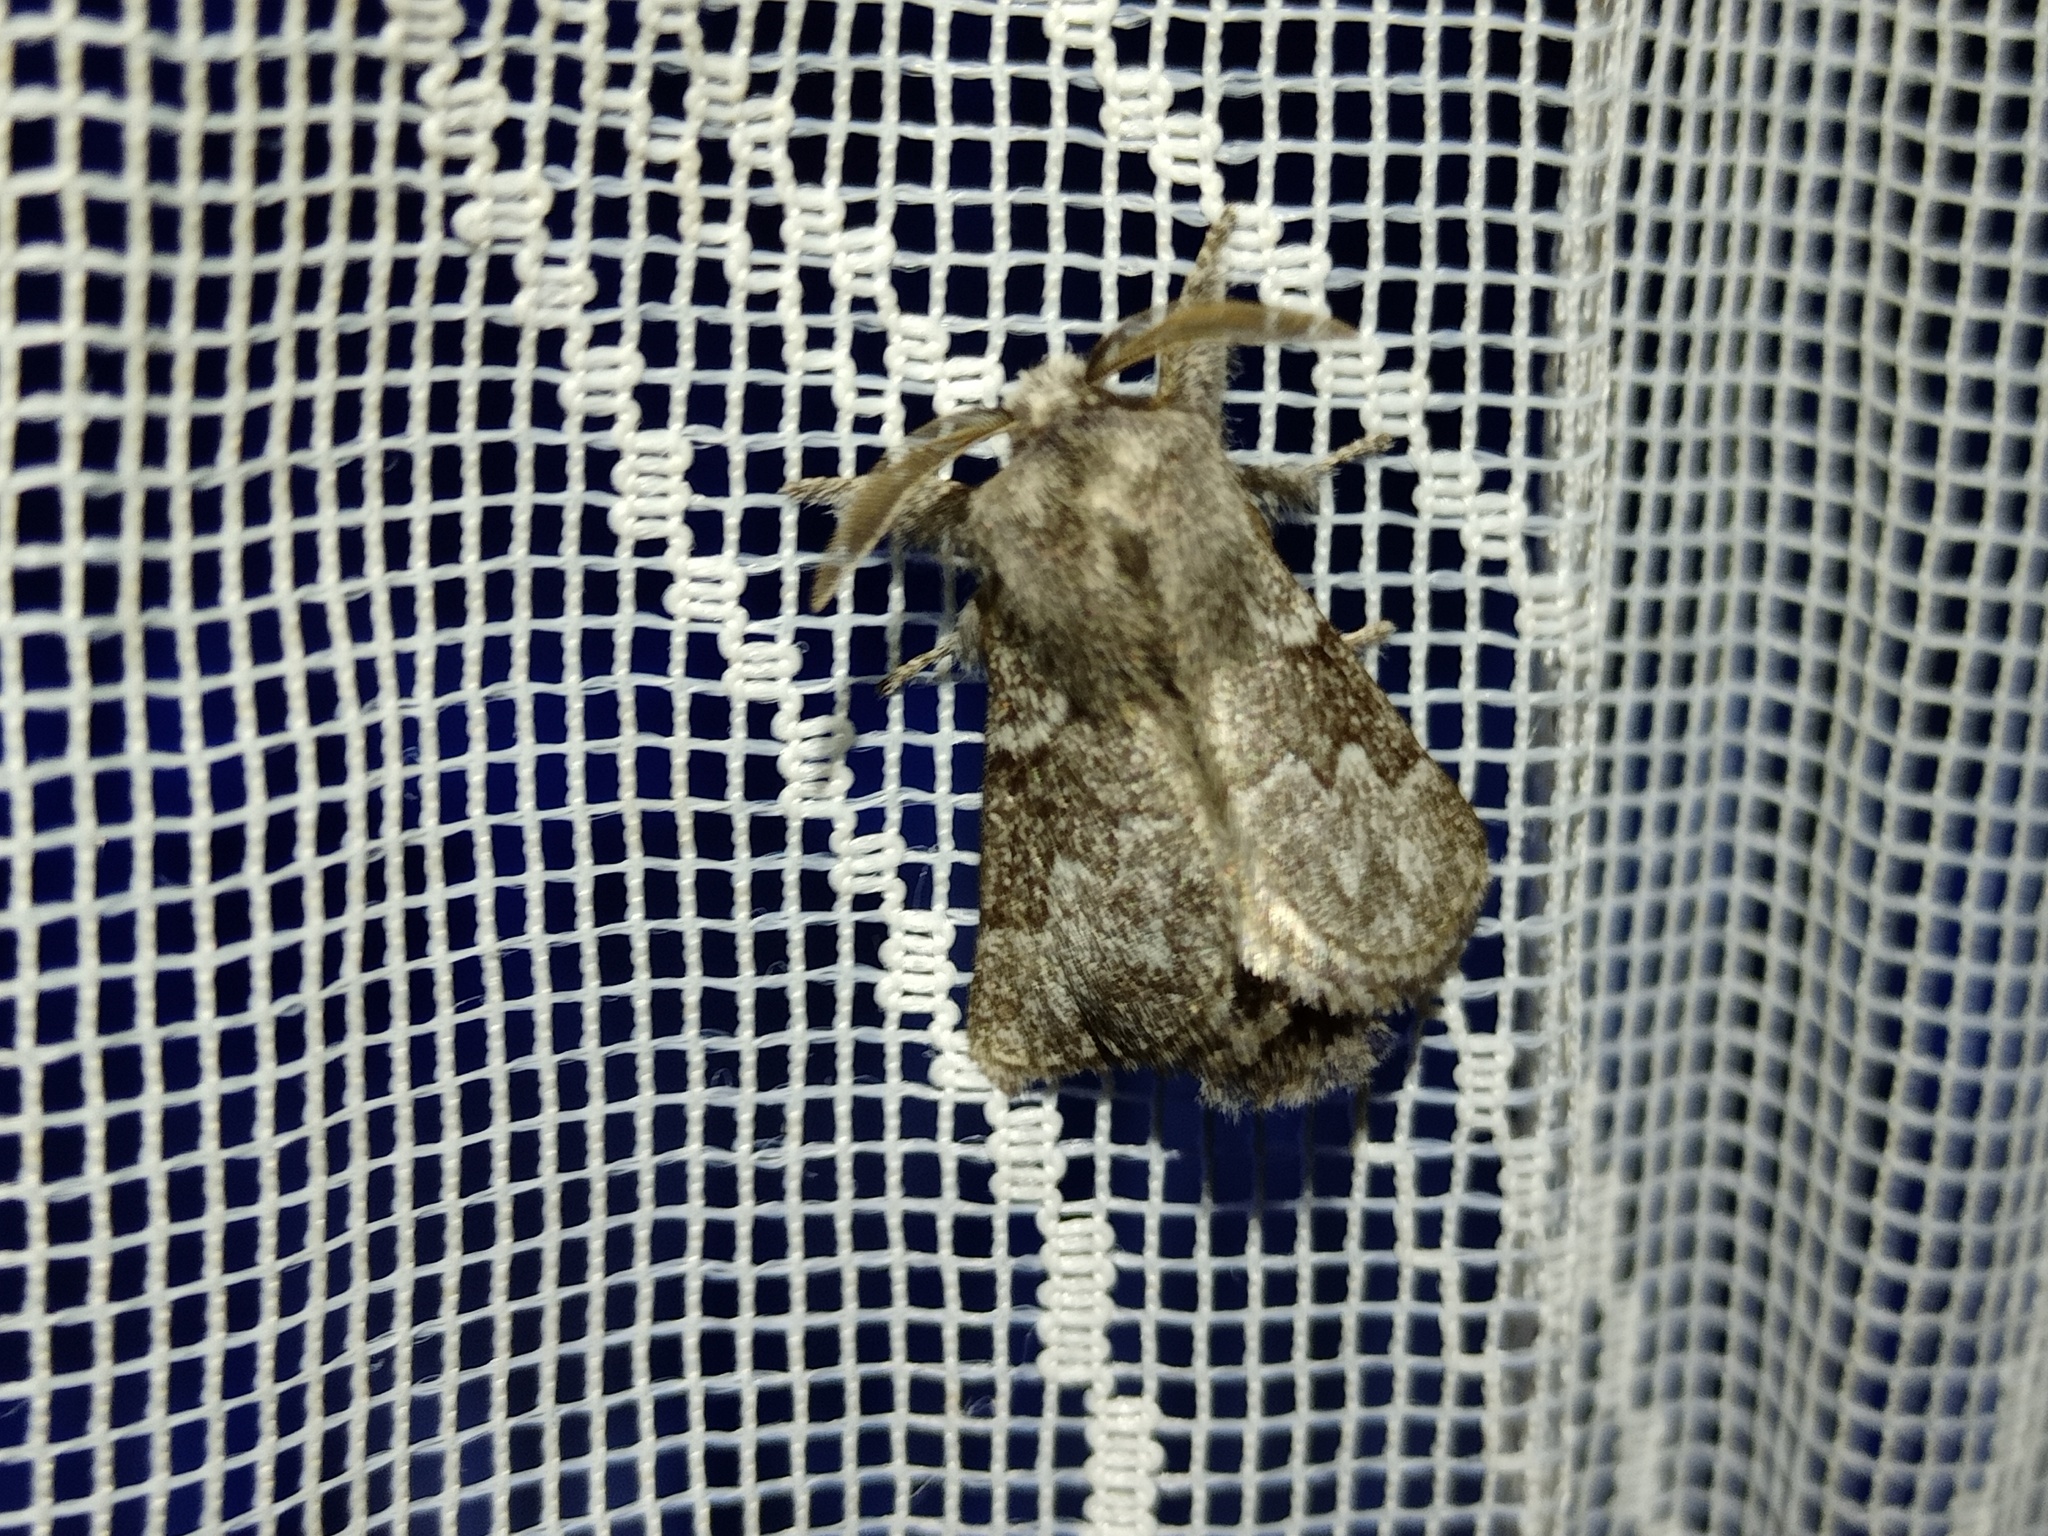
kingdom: Animalia
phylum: Arthropoda
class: Insecta
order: Lepidoptera
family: Lasiocampidae
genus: Trichiura
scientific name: Trichiura crataegi
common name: Pale eggar
